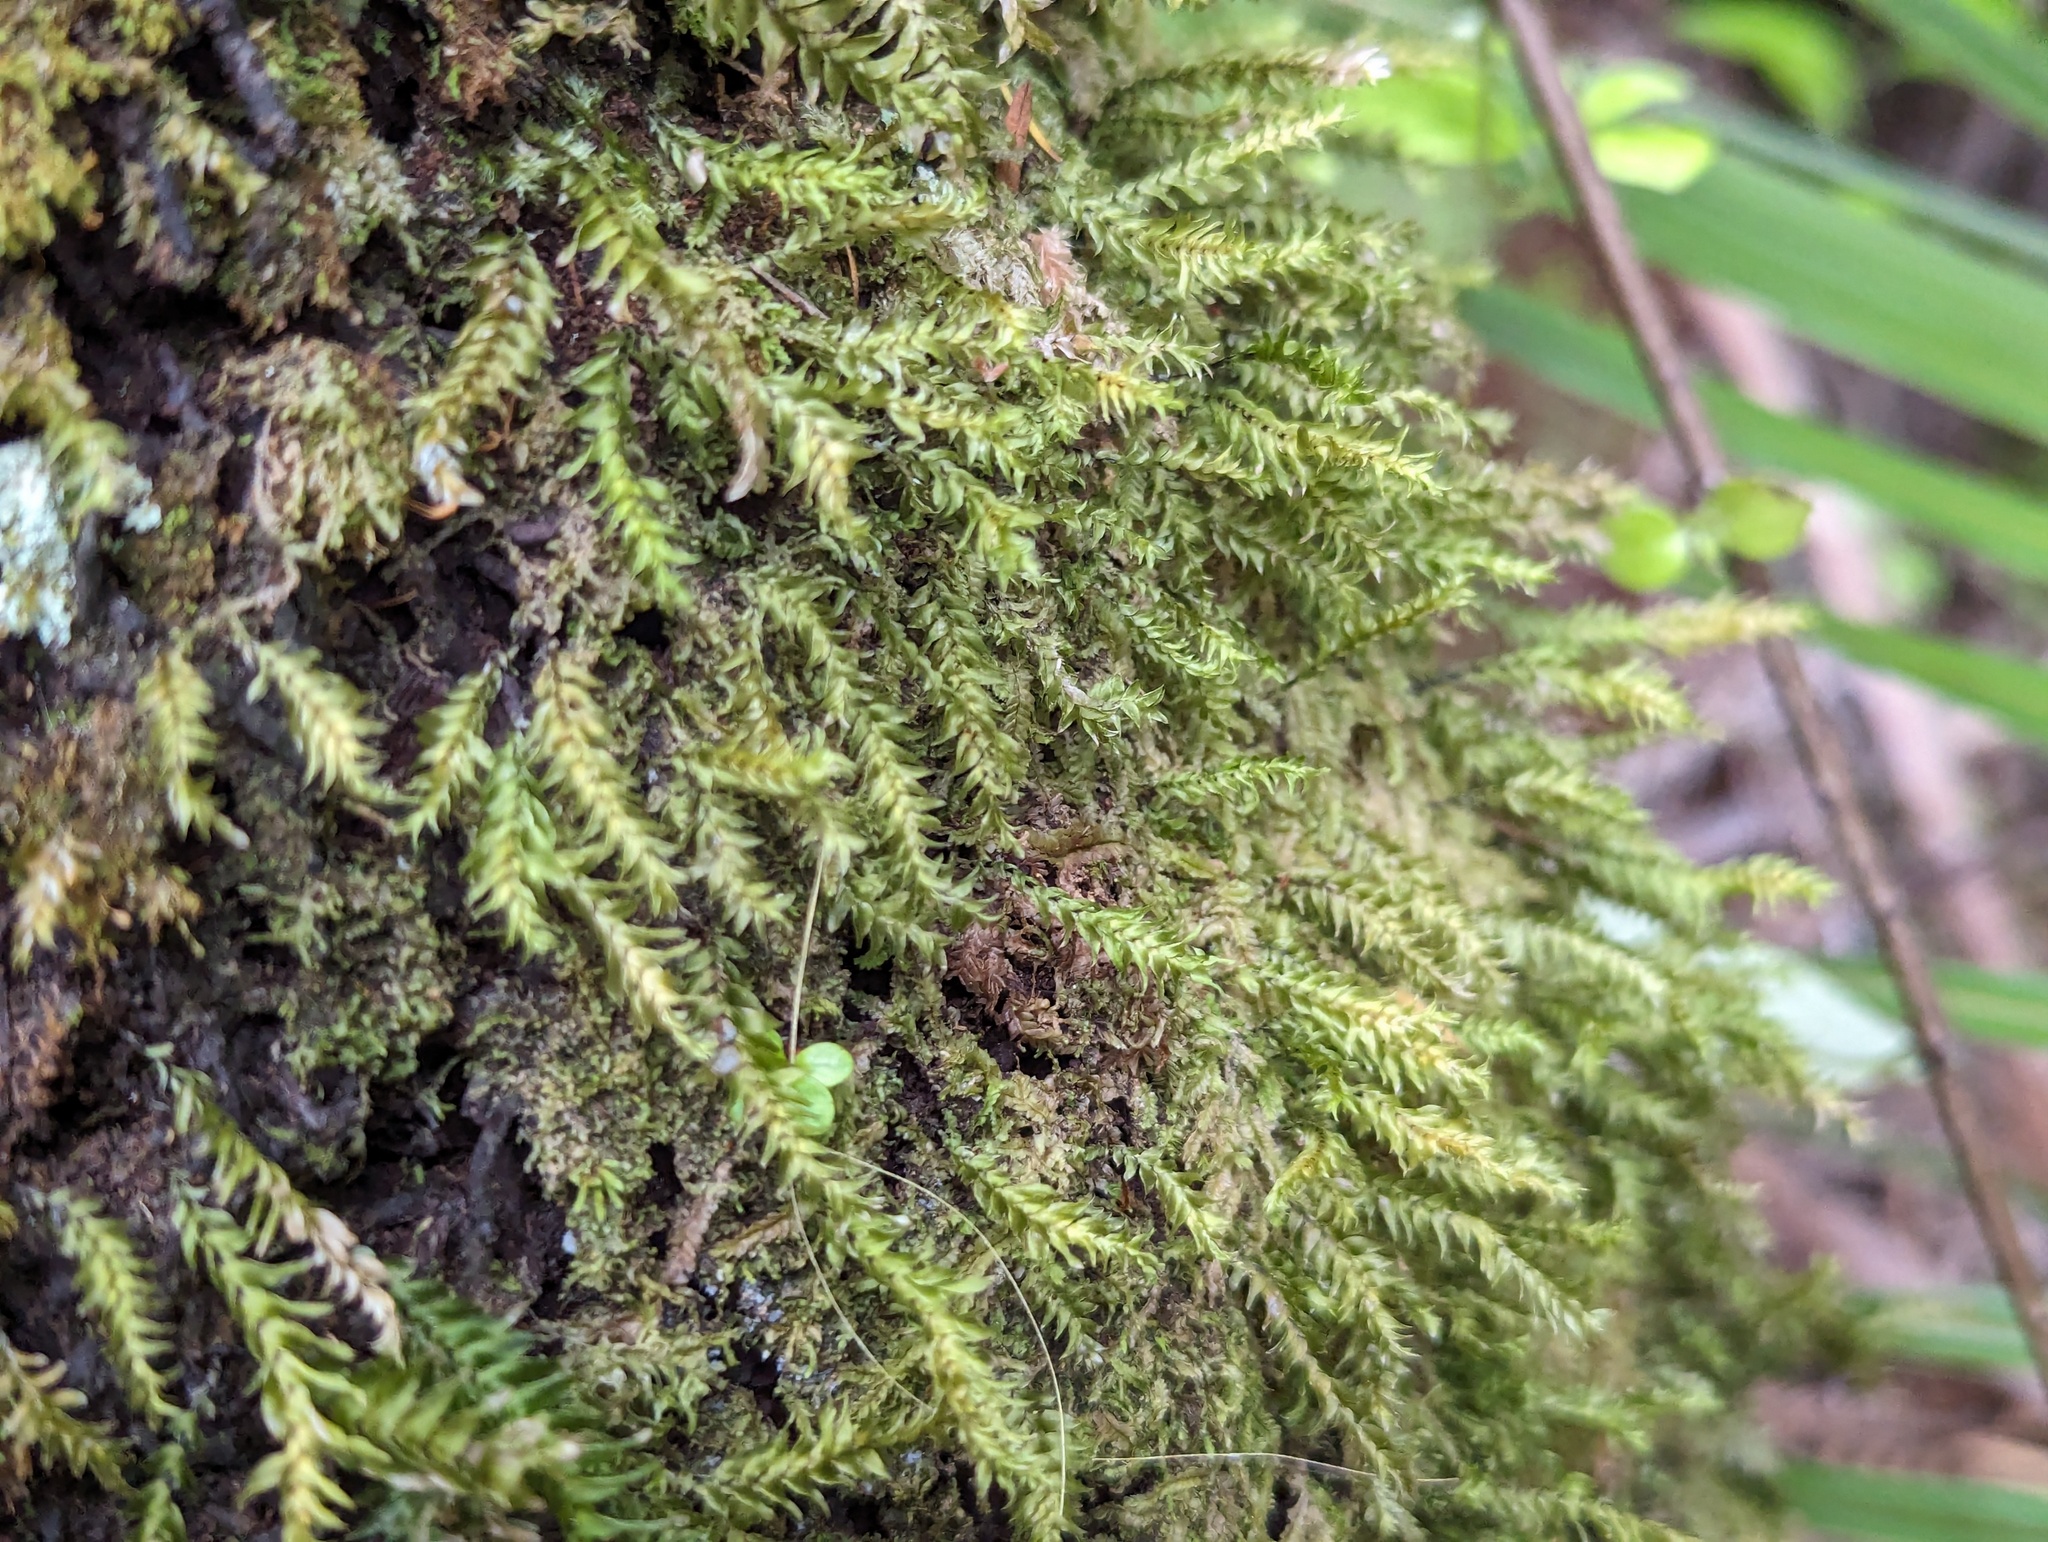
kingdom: Plantae
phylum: Bryophyta
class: Bryopsida
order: Hypopterygiales
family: Hypopterygiaceae
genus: Cyathophorum
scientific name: Cyathophorum bulbosum
